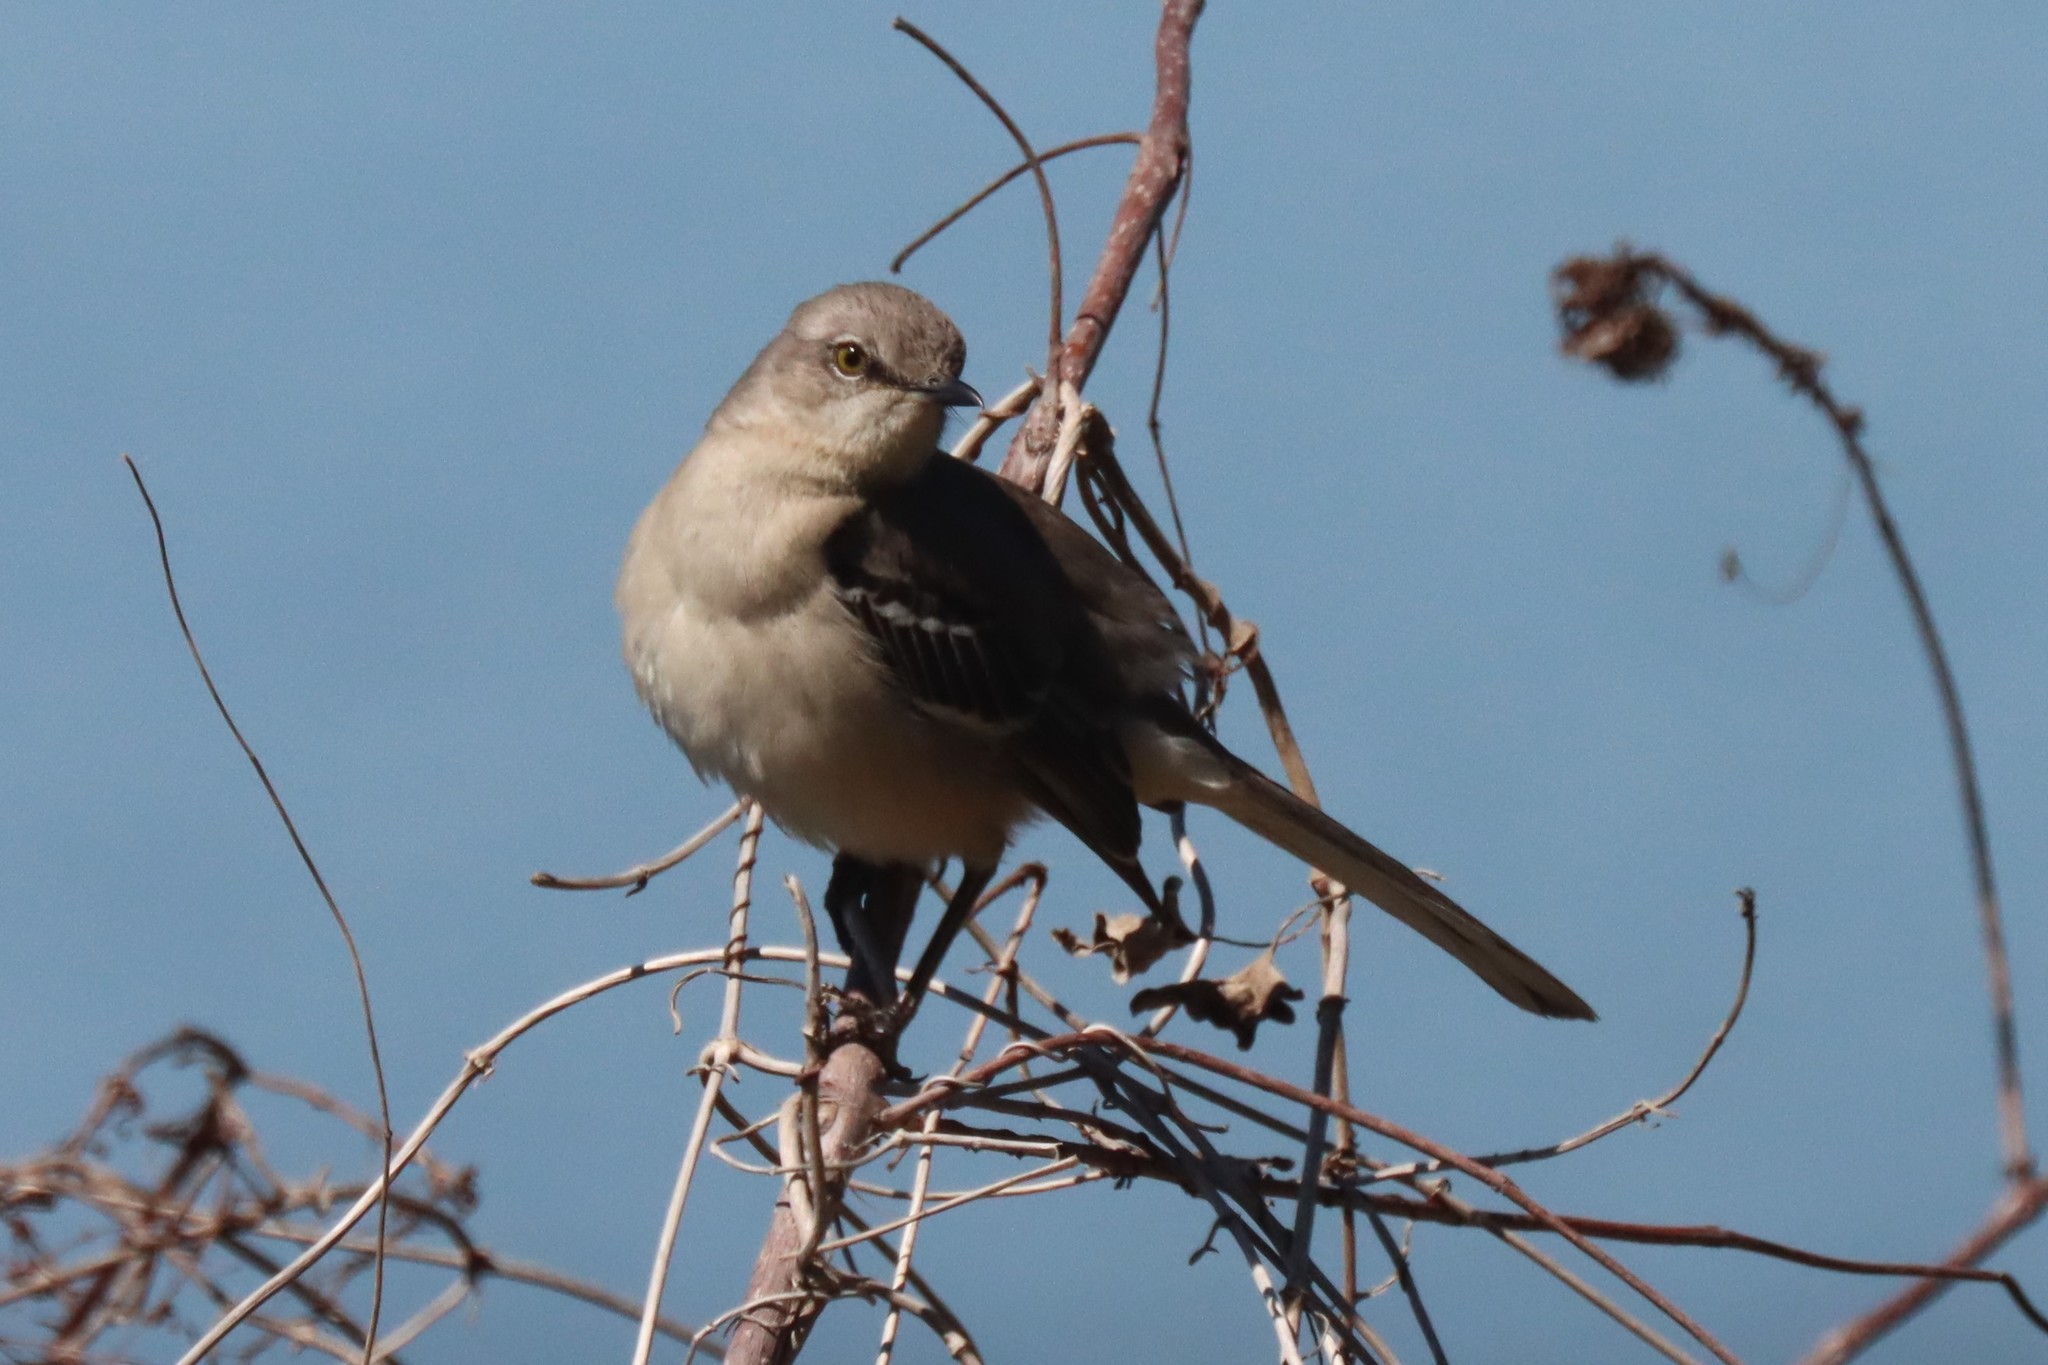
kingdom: Animalia
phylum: Chordata
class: Aves
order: Passeriformes
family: Mimidae
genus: Mimus
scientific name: Mimus polyglottos
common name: Northern mockingbird
